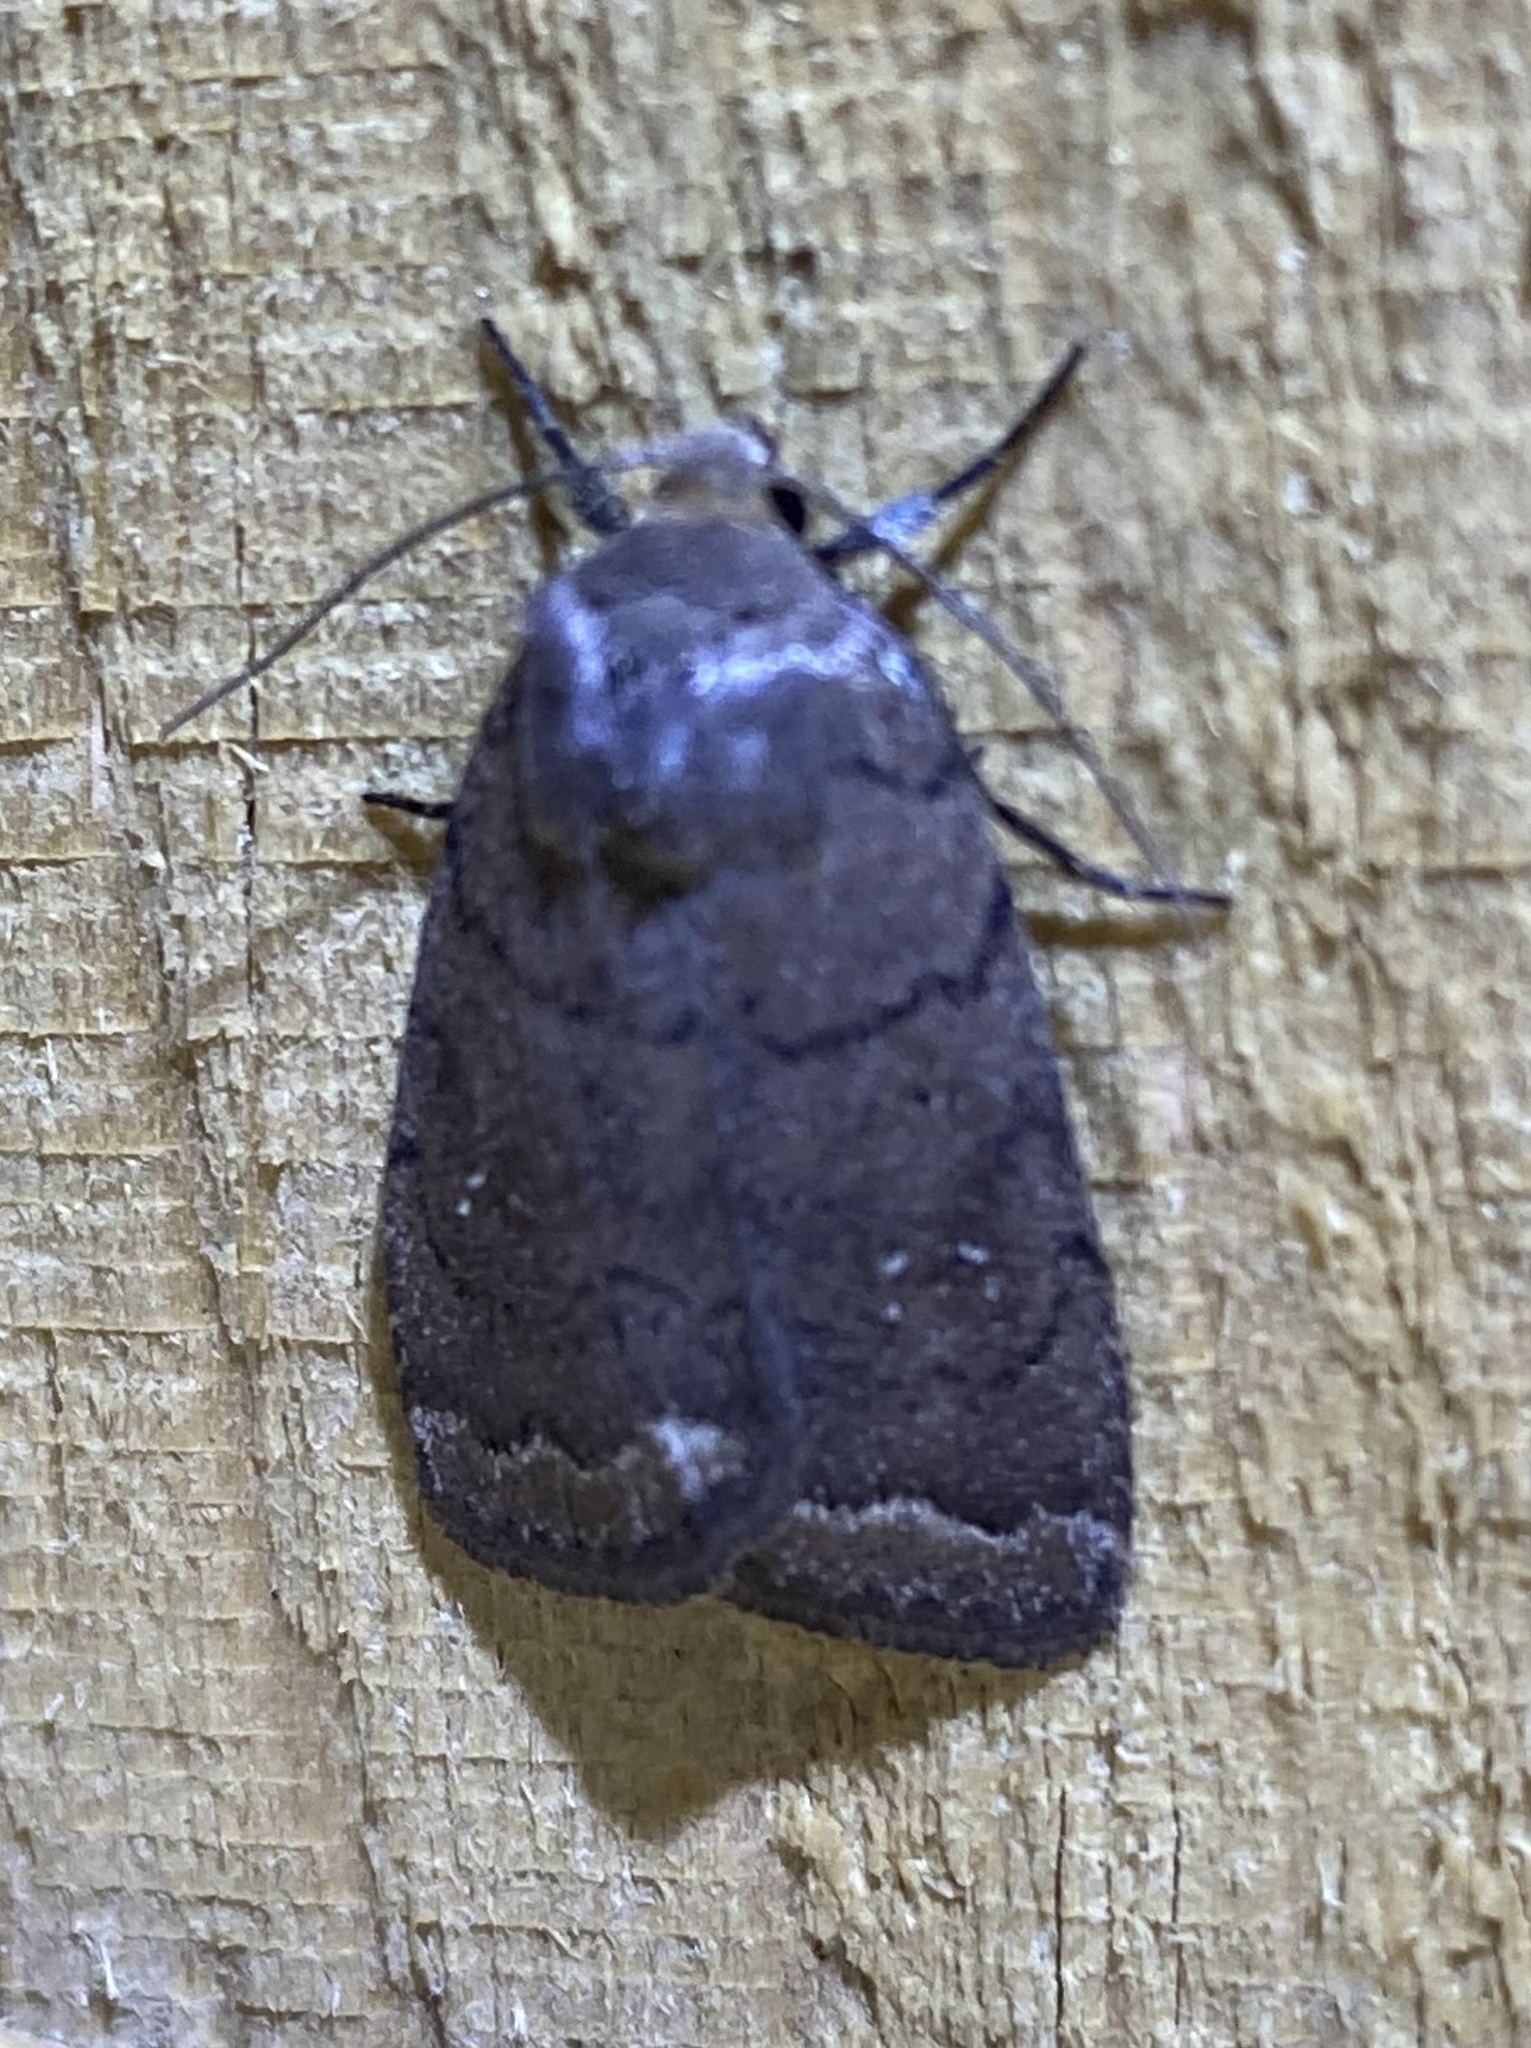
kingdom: Animalia
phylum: Arthropoda
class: Insecta
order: Lepidoptera
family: Noctuidae
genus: Athetis
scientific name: Athetis tarda
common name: Slowpoke moth
